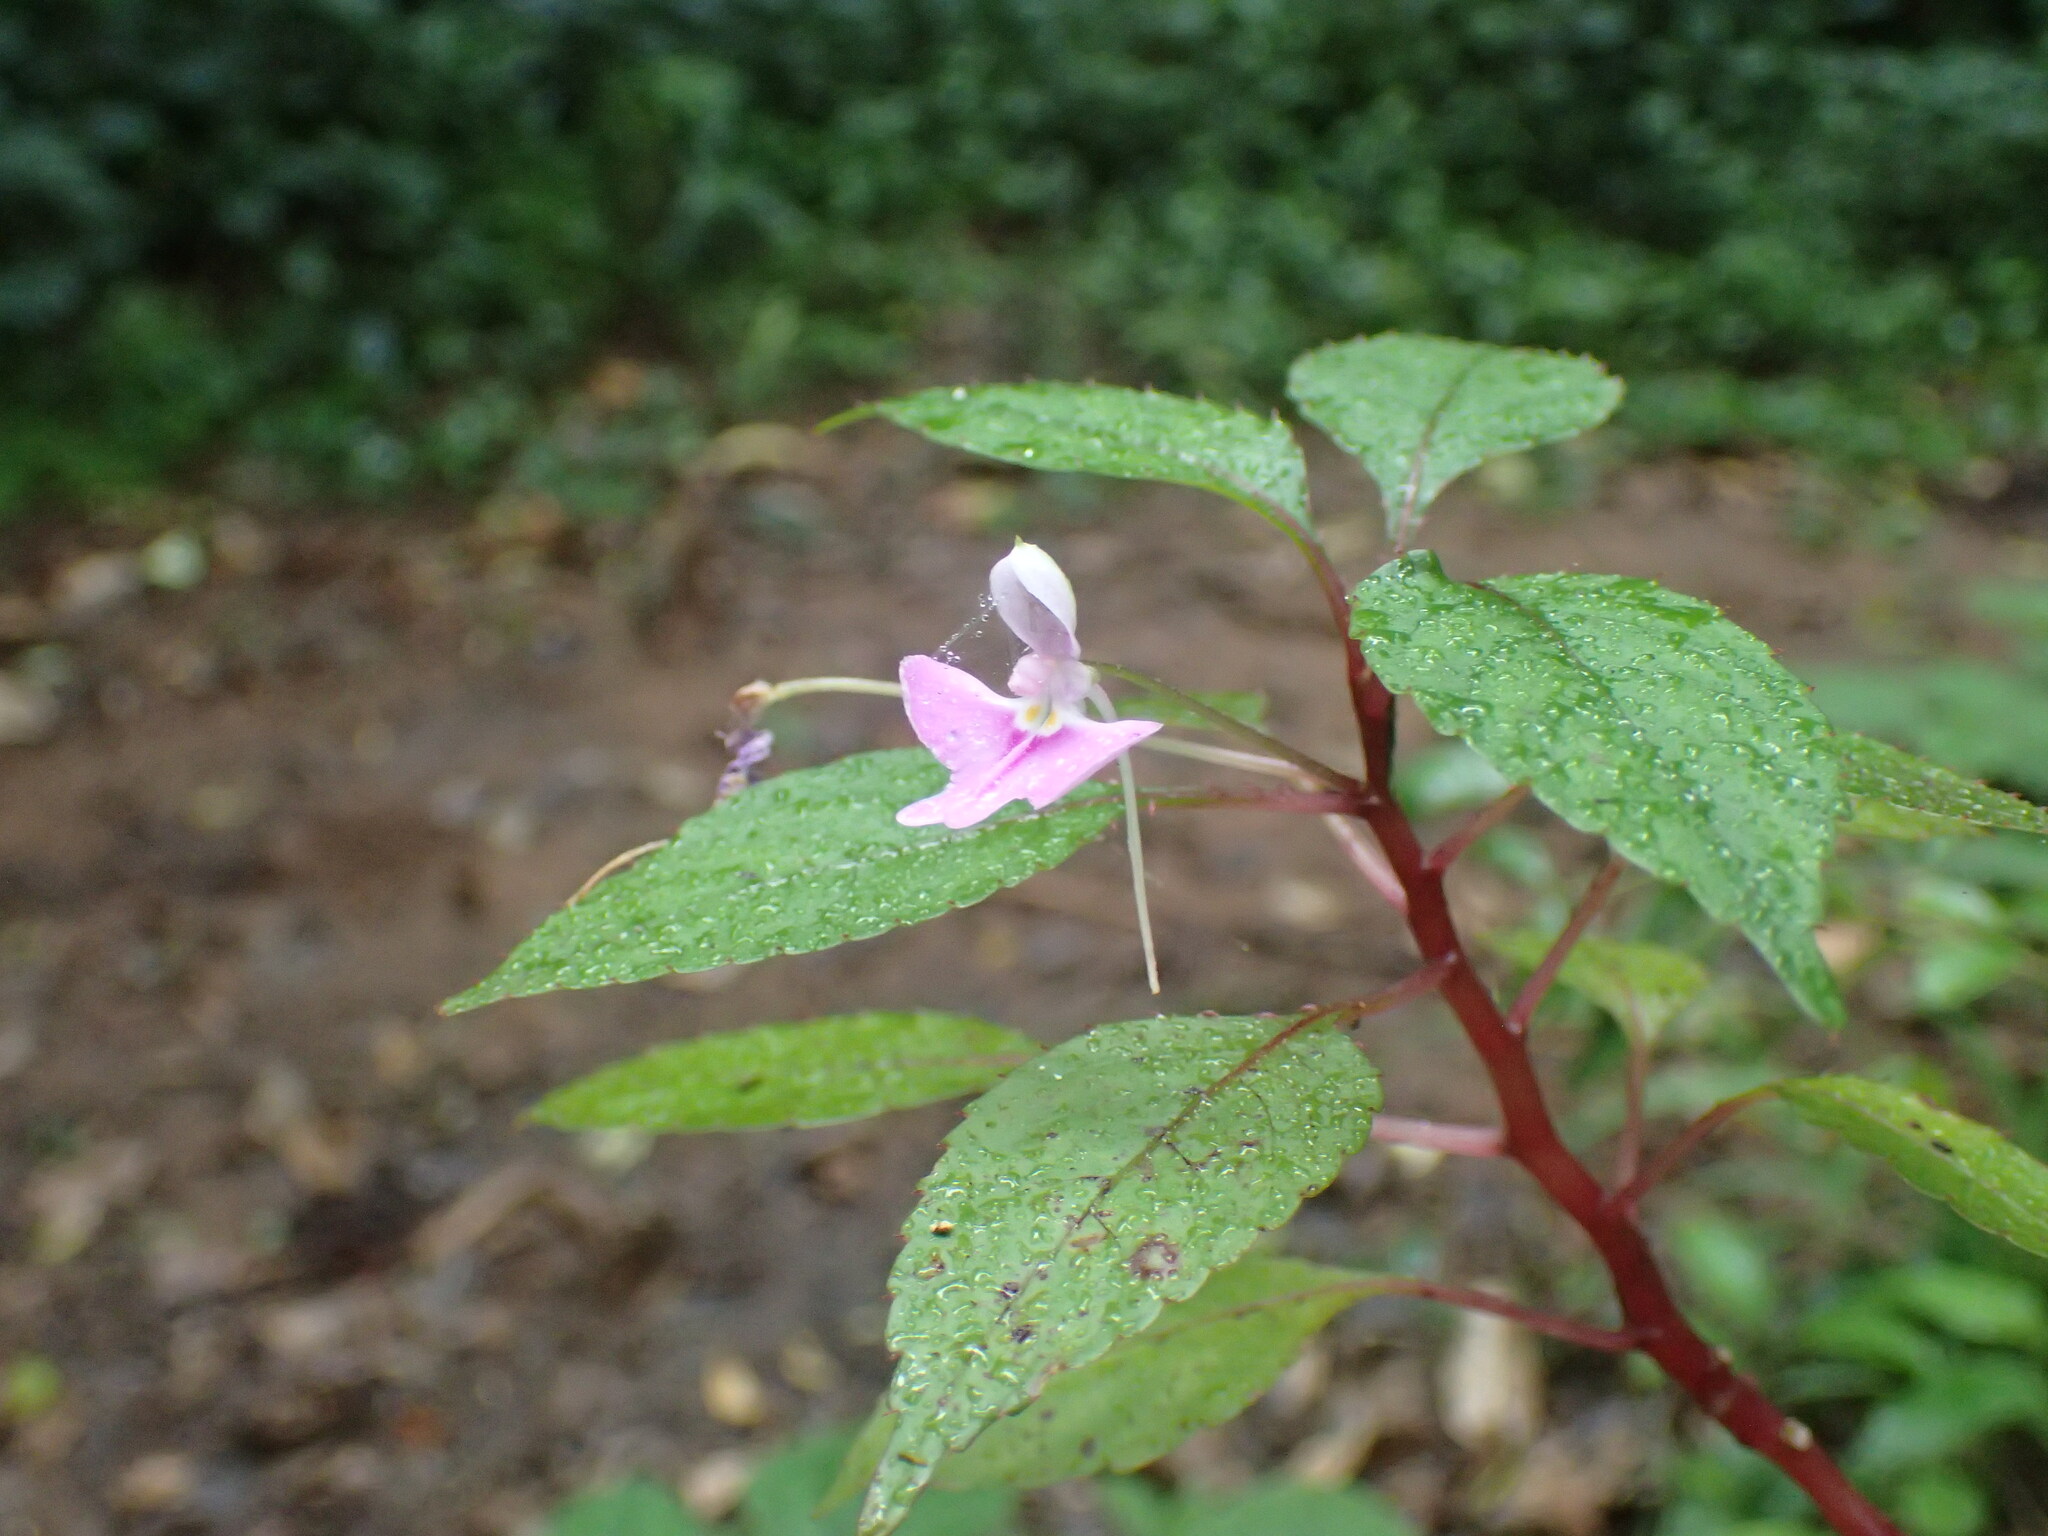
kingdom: Plantae
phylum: Tracheophyta
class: Magnoliopsida
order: Ericales
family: Balsaminaceae
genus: Impatiens
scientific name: Impatiens hochstetteri
